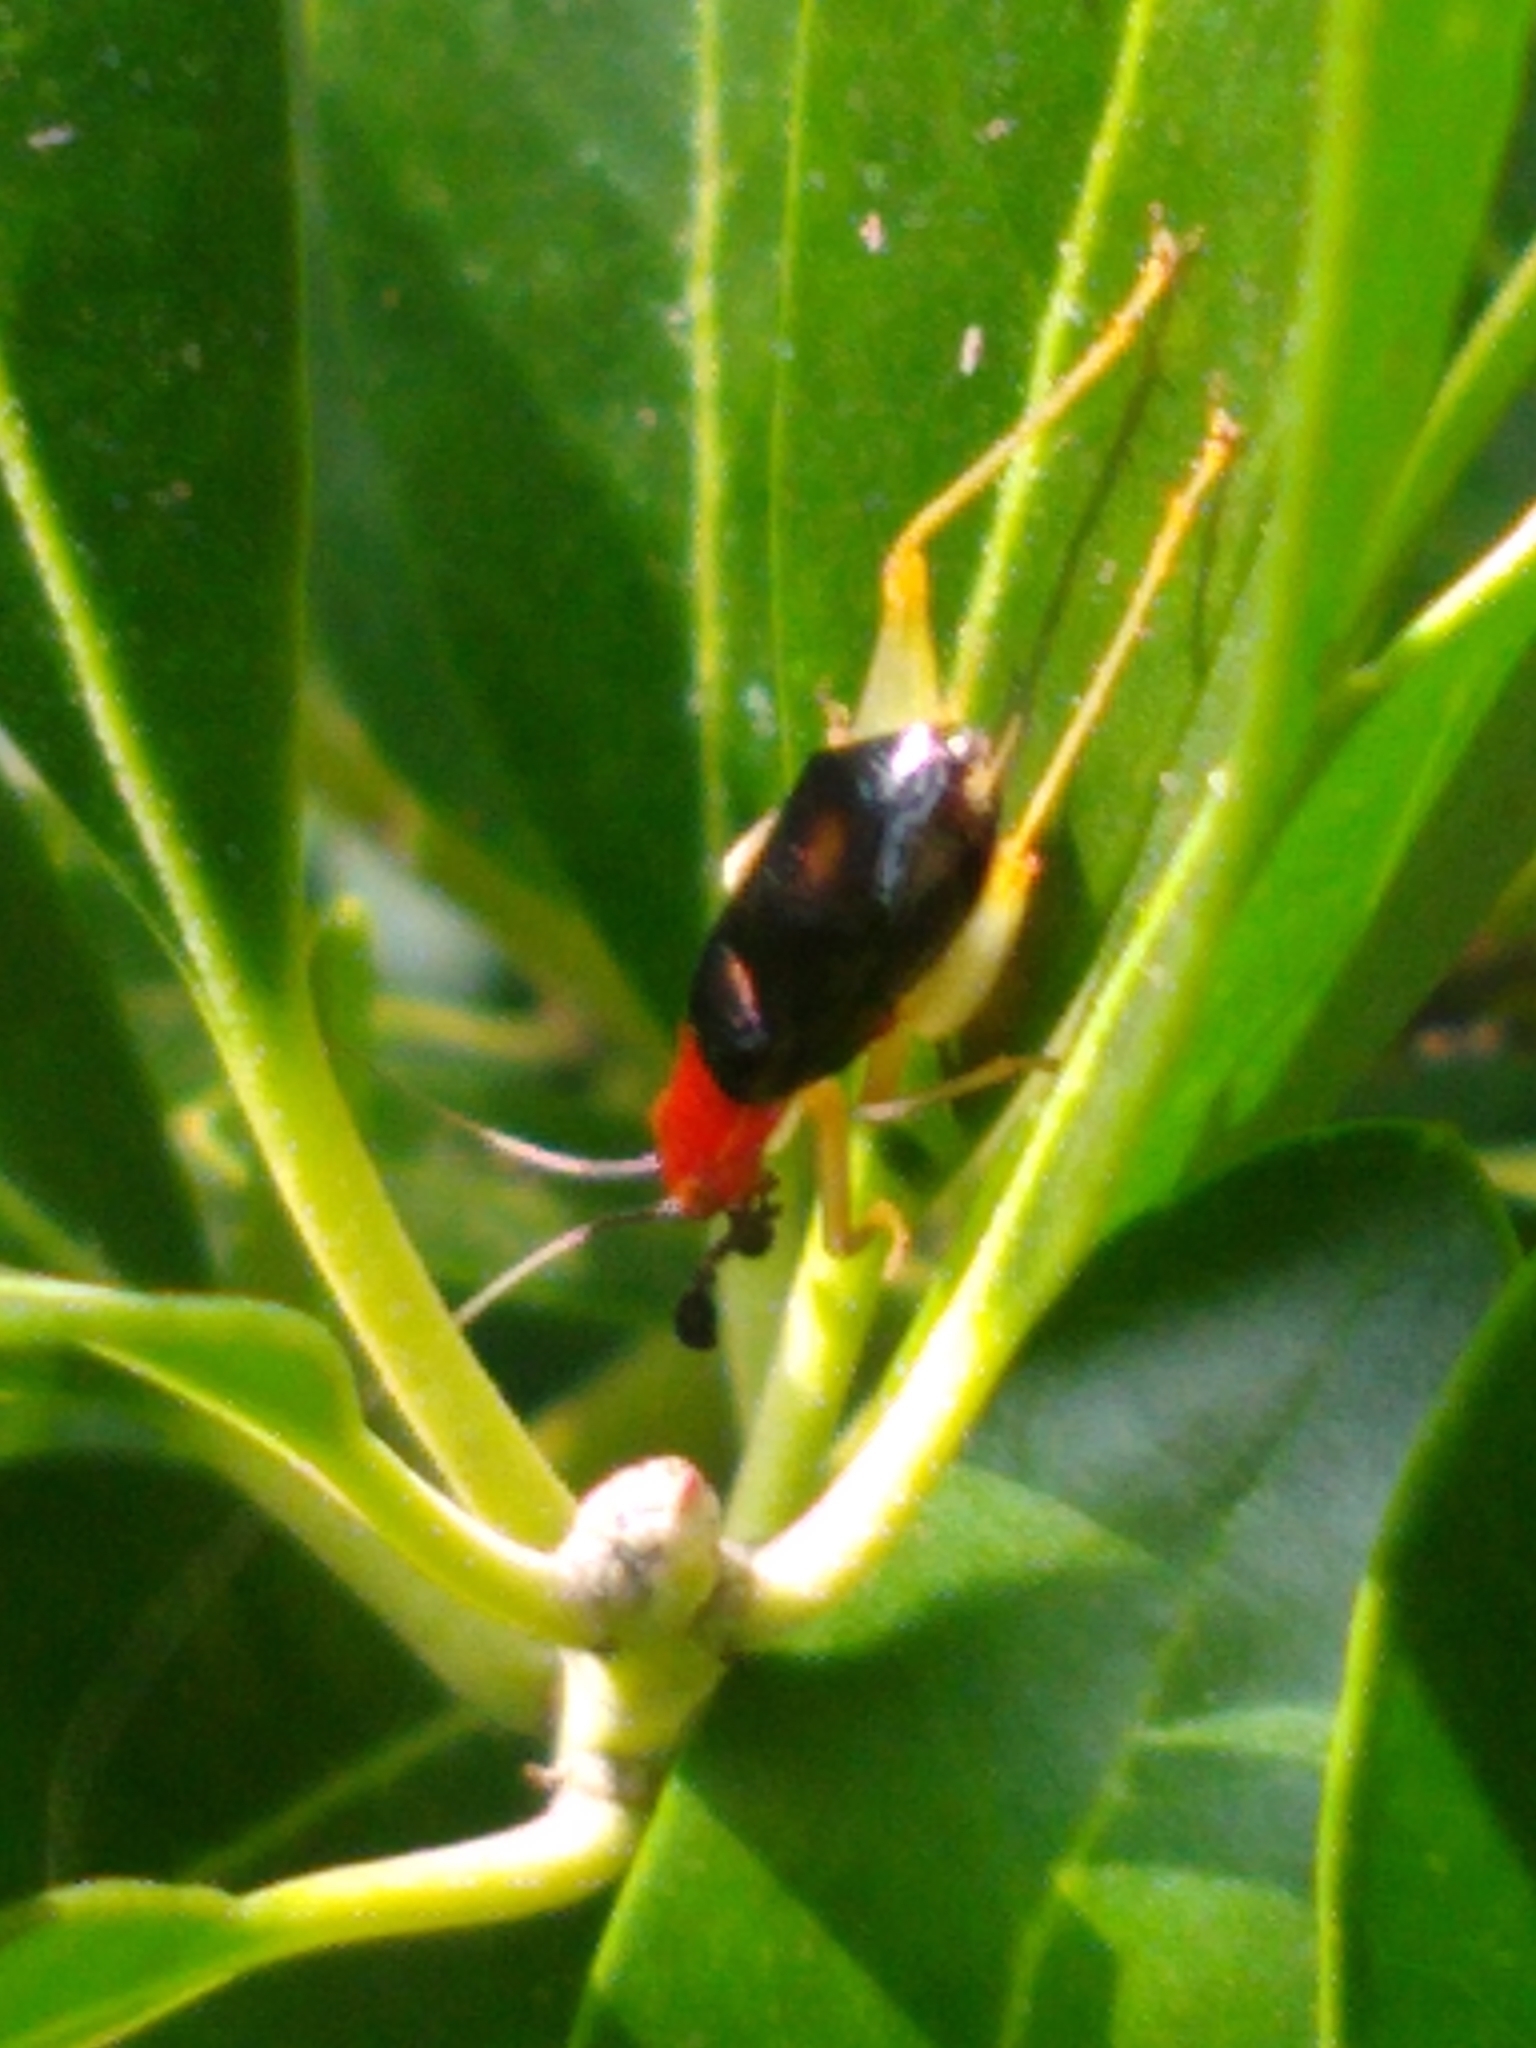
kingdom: Animalia
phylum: Arthropoda
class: Insecta
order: Orthoptera
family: Trigonidiidae
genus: Phyllopalpus
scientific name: Phyllopalpus pulchellus
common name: Handsome trig
